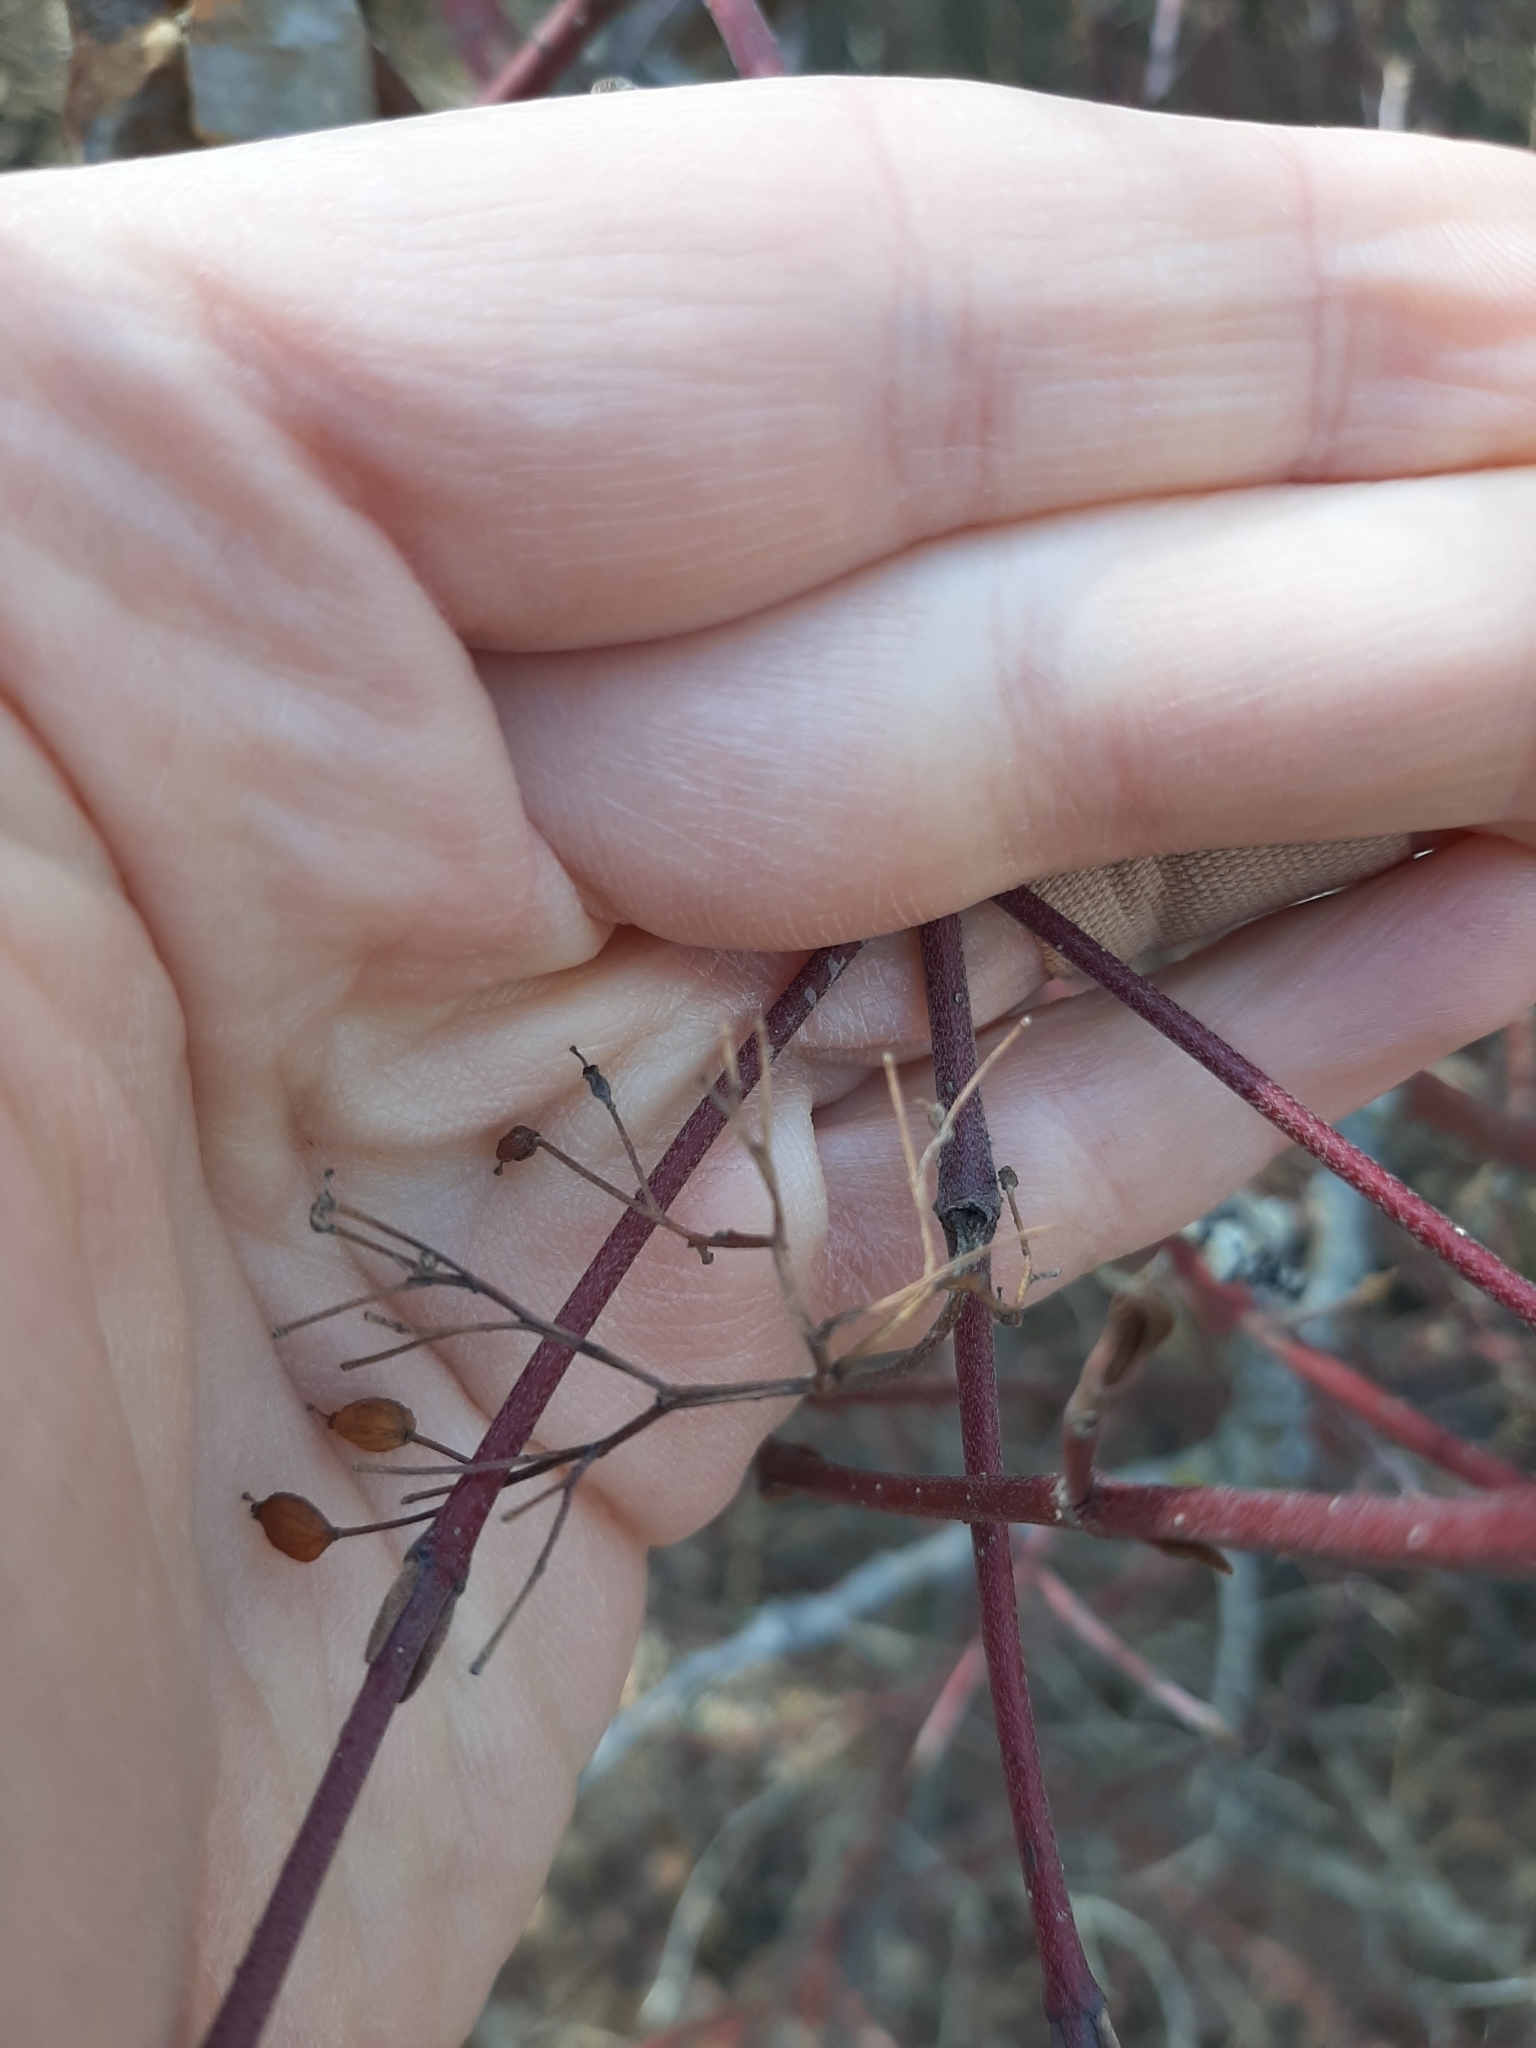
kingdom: Plantae
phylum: Tracheophyta
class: Magnoliopsida
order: Cornales
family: Cornaceae
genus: Cornus
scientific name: Cornus sericea
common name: Red-osier dogwood
